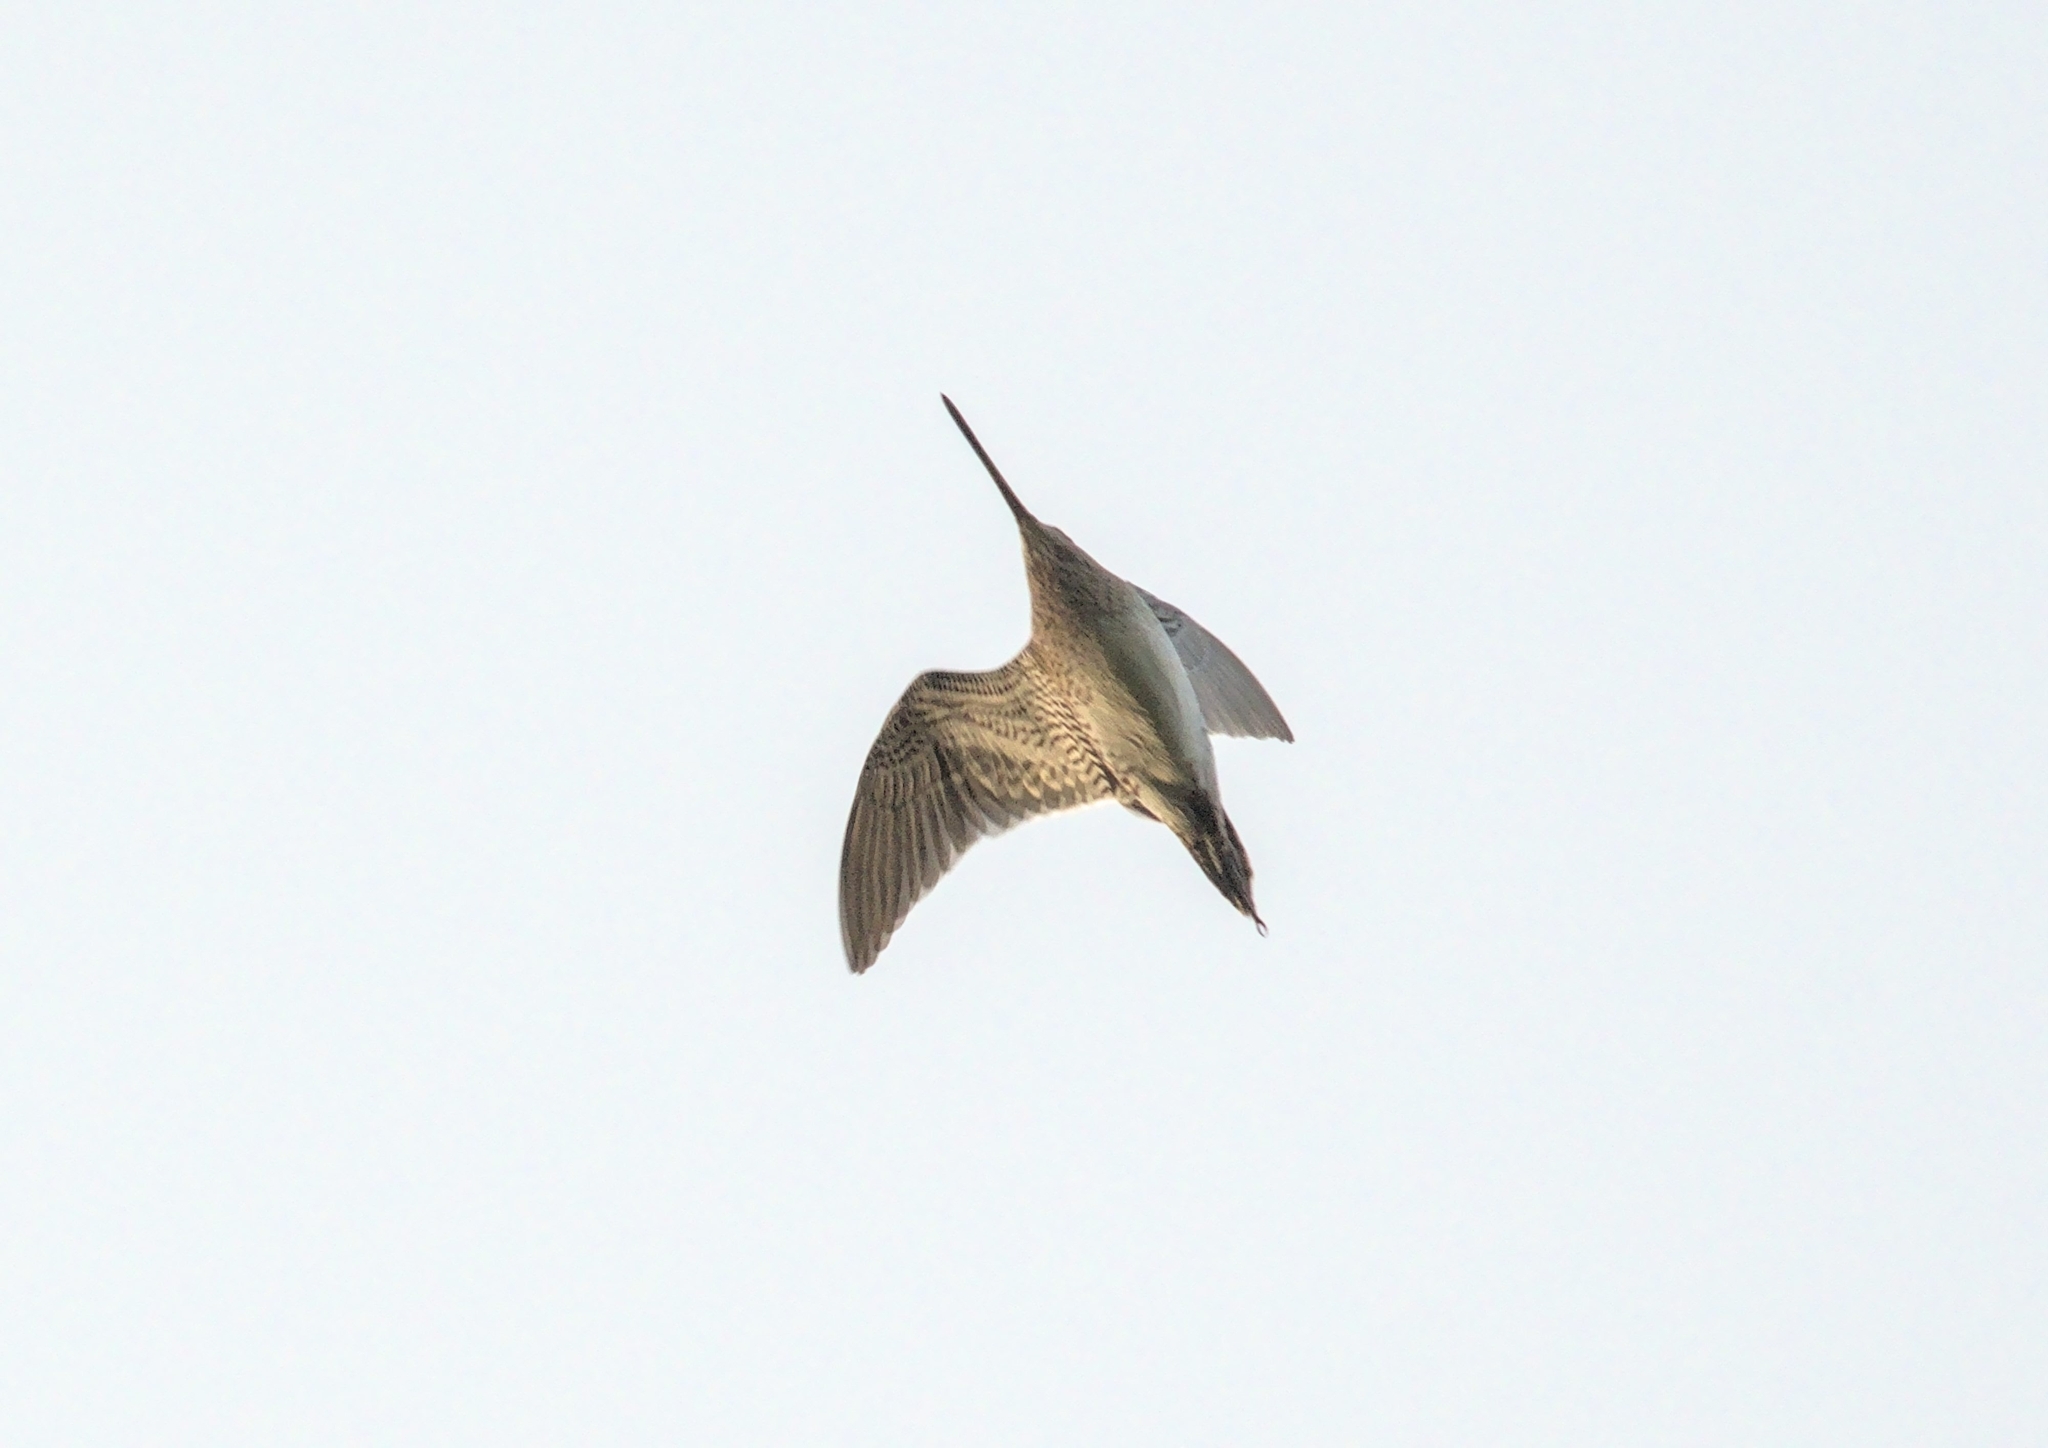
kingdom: Animalia
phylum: Chordata
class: Aves
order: Charadriiformes
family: Scolopacidae
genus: Gallinago
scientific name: Gallinago gallinago
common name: Common snipe
